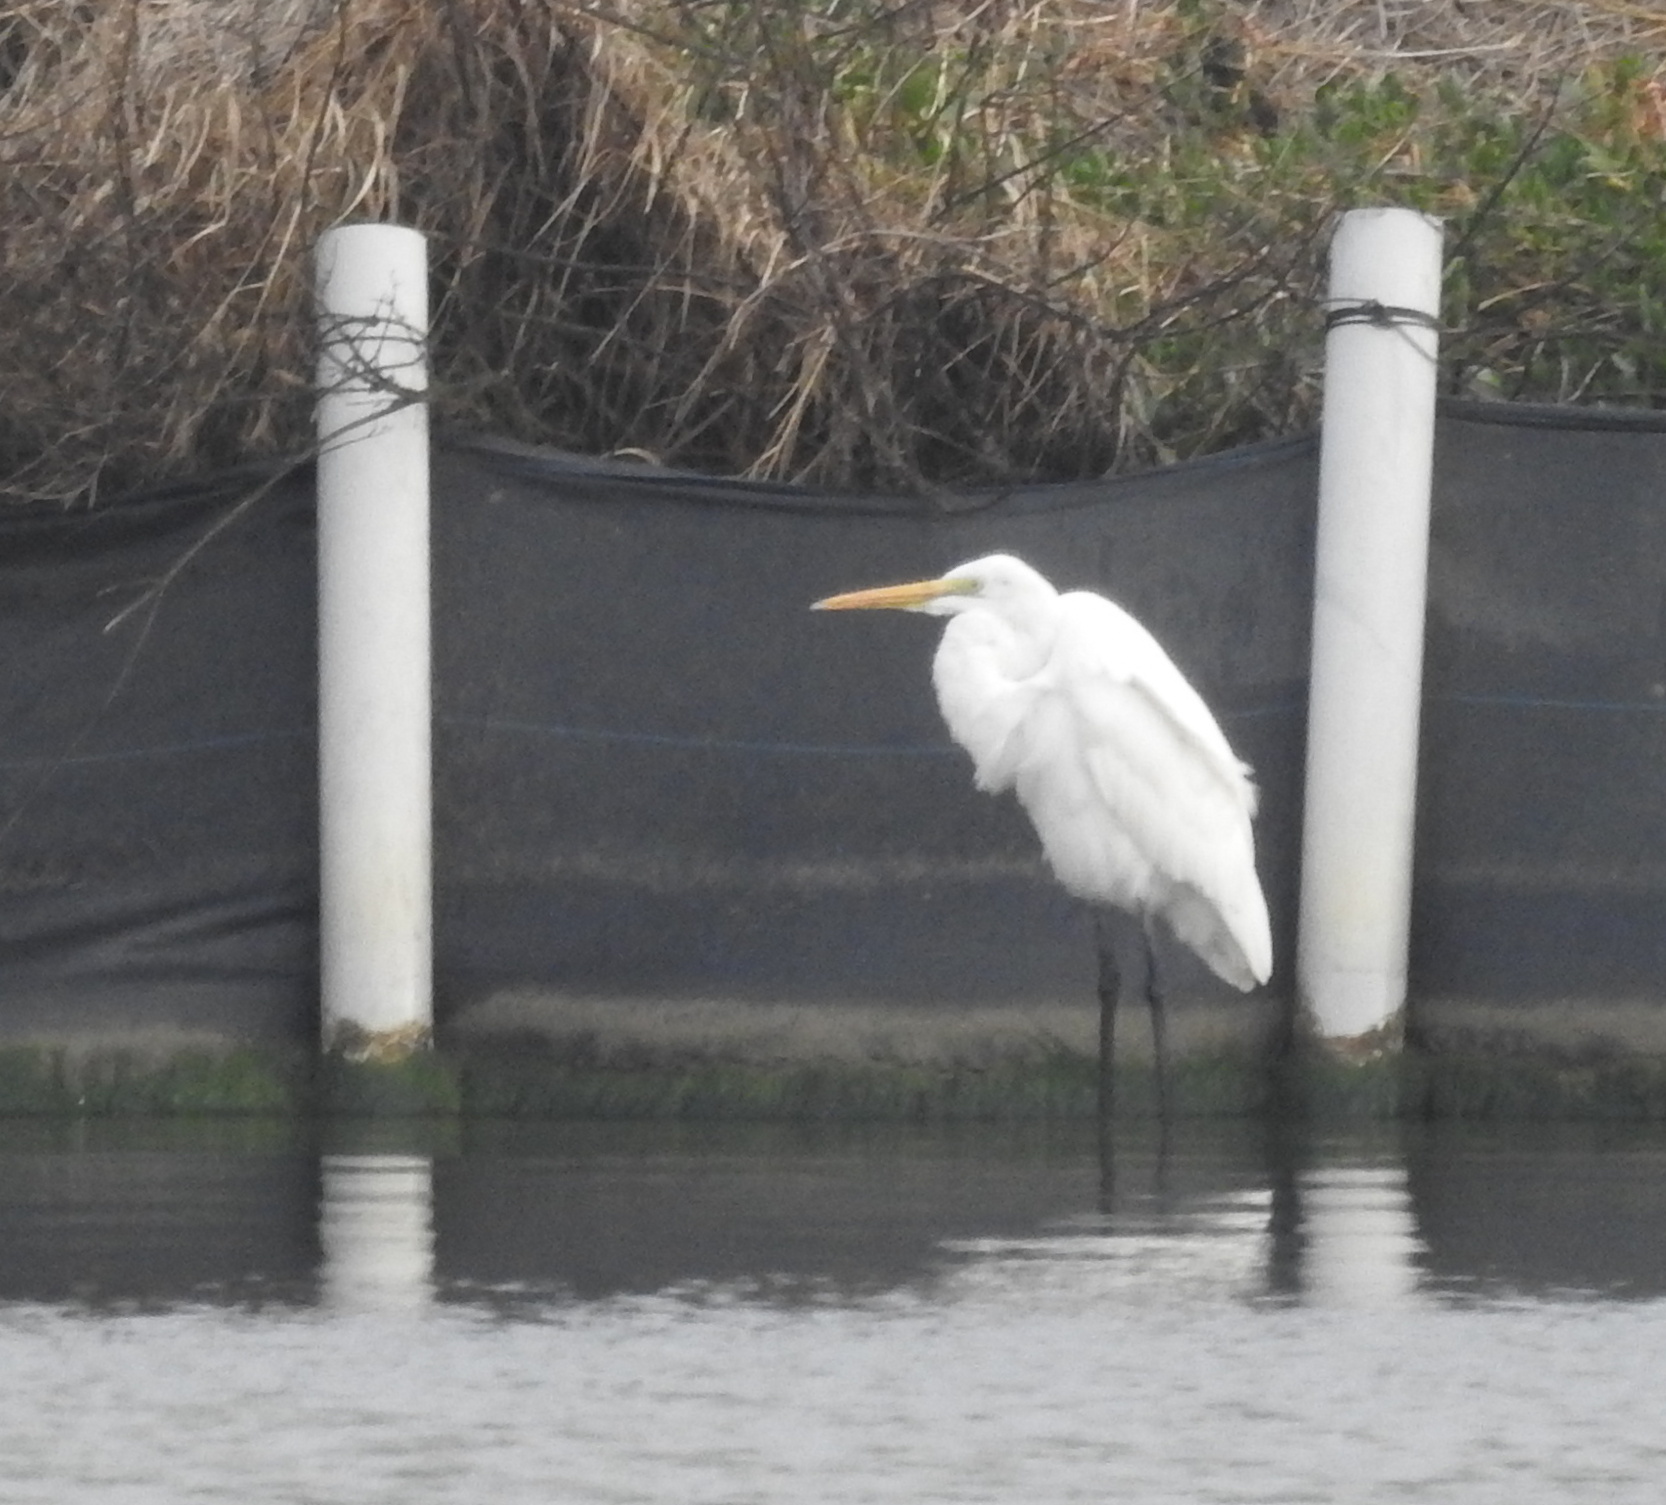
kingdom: Animalia
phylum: Chordata
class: Aves
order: Pelecaniformes
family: Ardeidae
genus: Ardea
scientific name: Ardea alba
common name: Great egret
